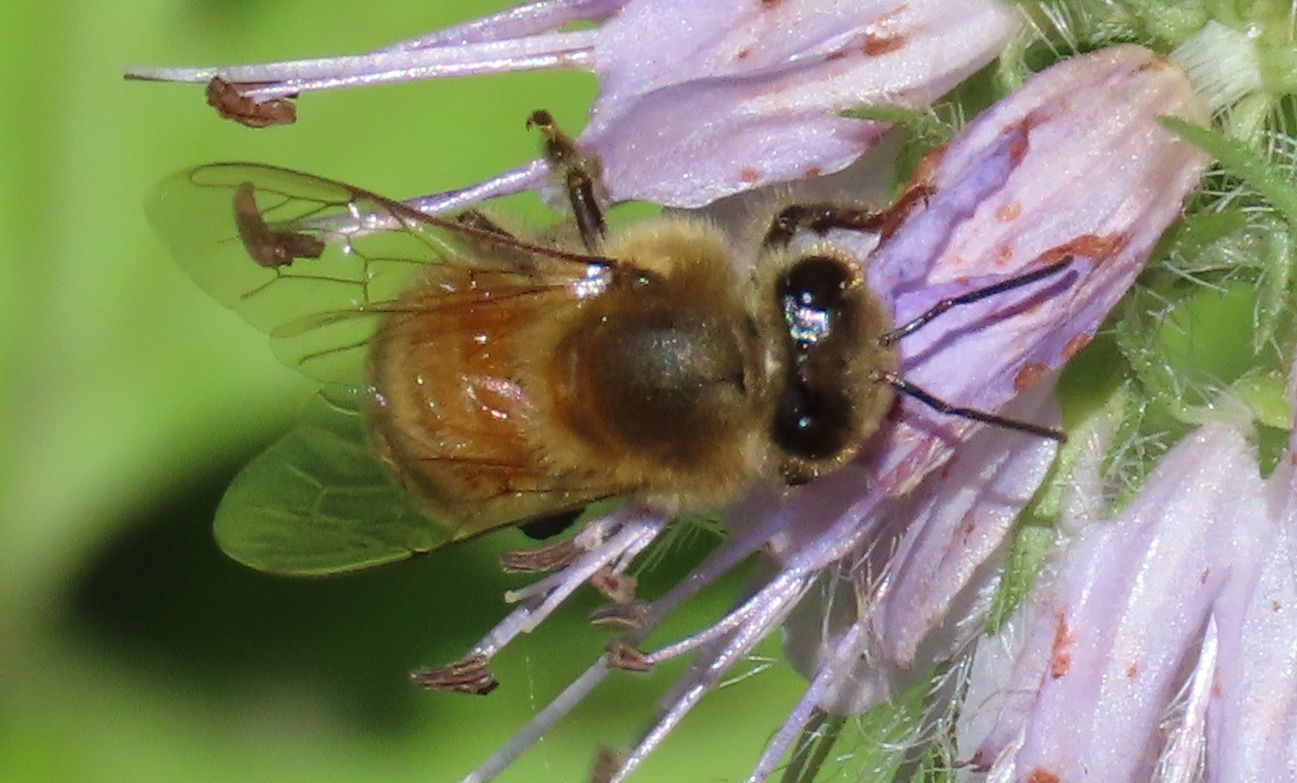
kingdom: Animalia
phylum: Arthropoda
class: Insecta
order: Hymenoptera
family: Apidae
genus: Apis
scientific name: Apis mellifera
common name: Honey bee
